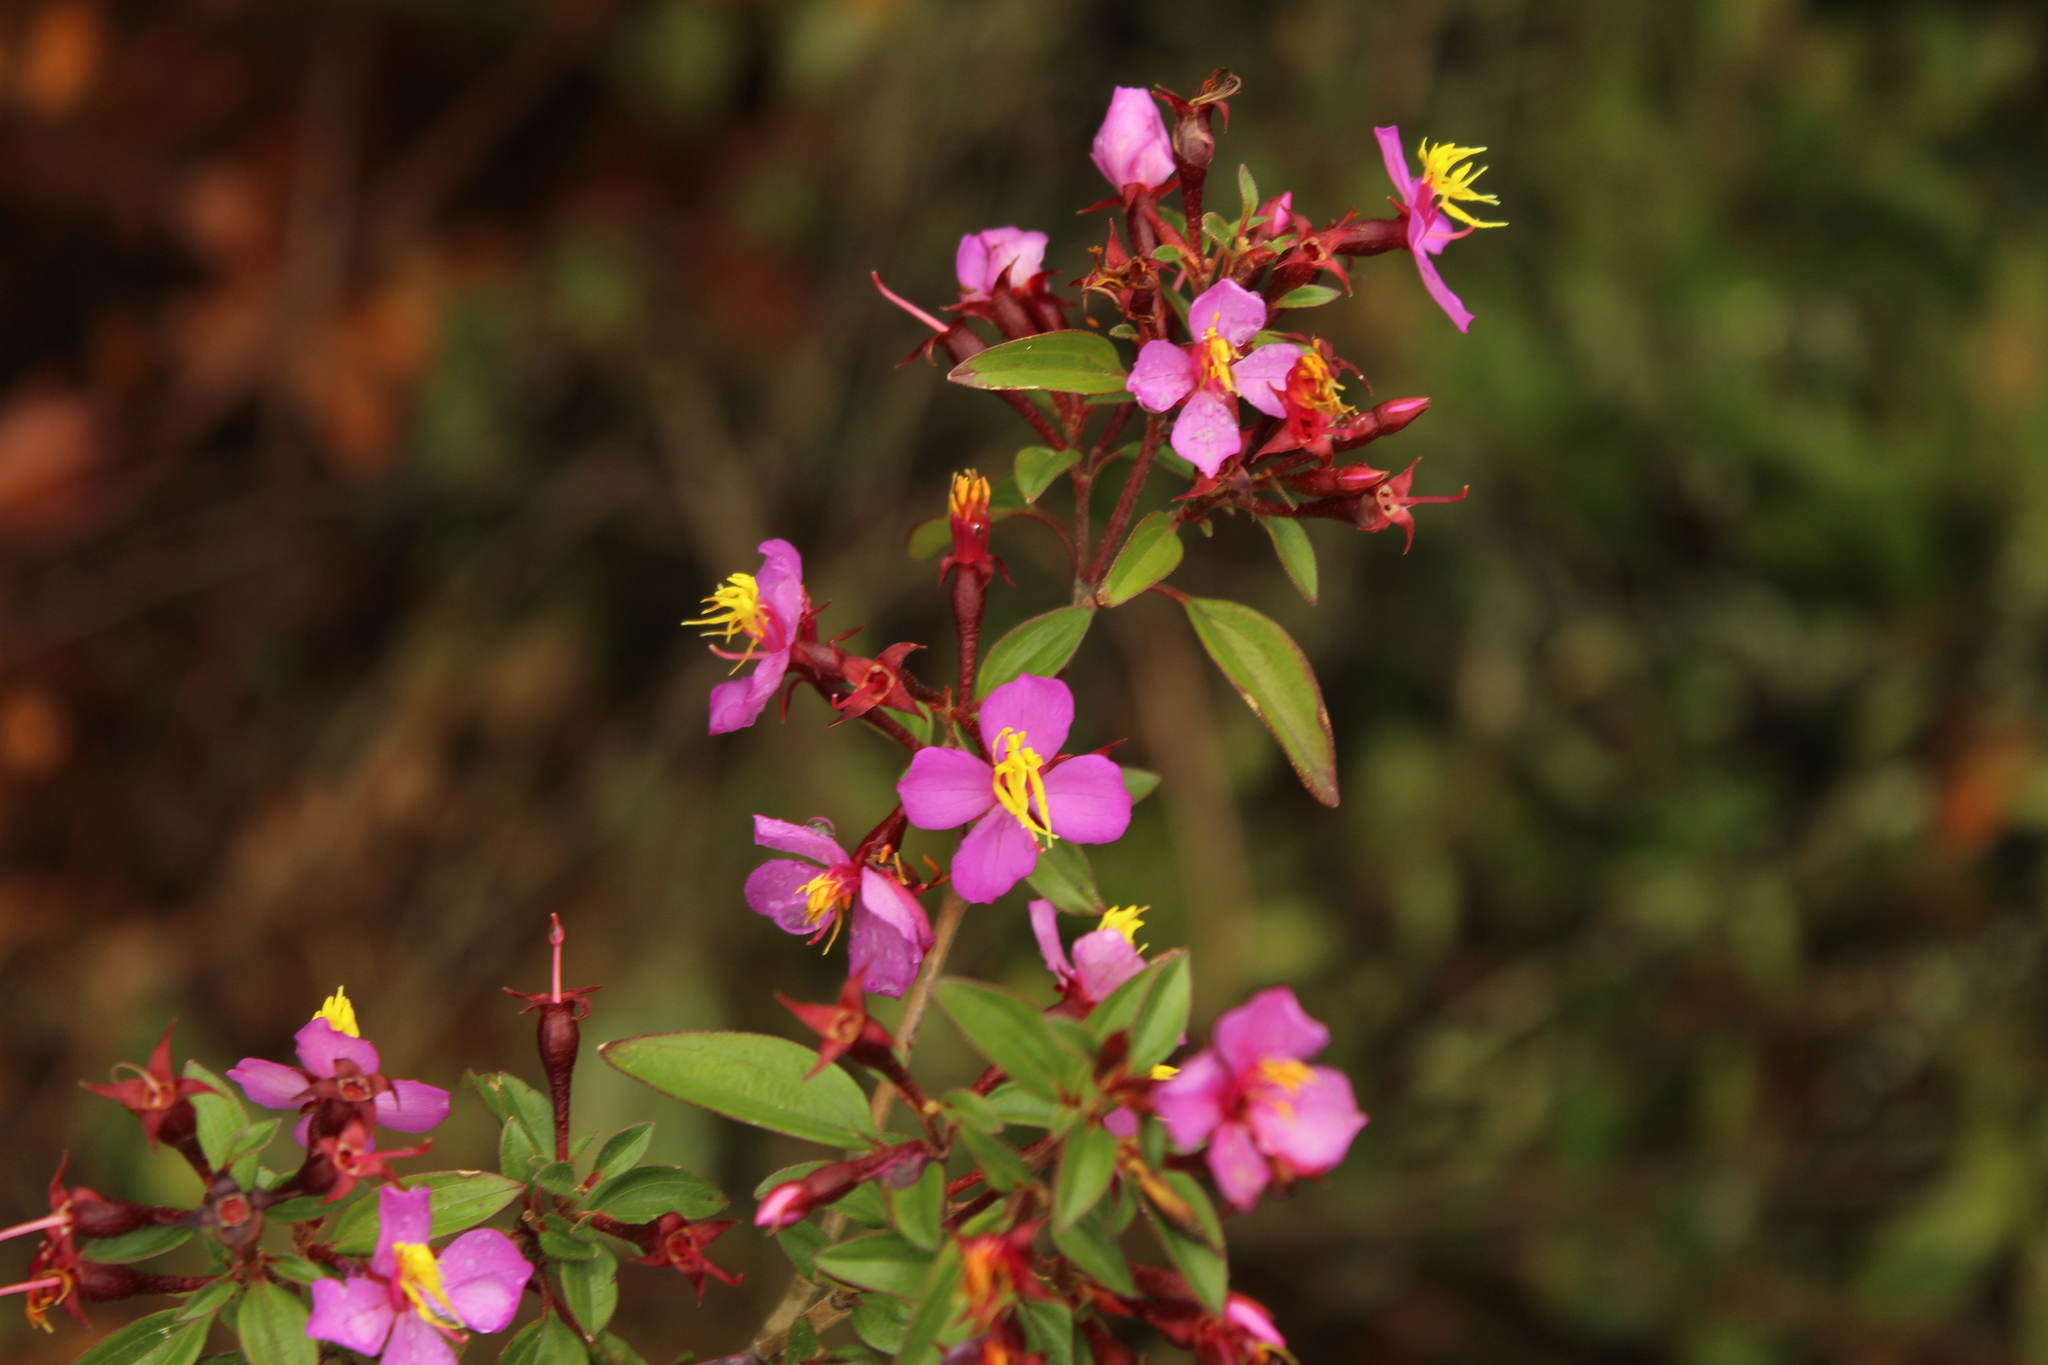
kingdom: Plantae
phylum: Tracheophyta
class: Magnoliopsida
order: Myrtales
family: Melastomataceae
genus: Monochaetum
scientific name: Monochaetum myrtoideum
